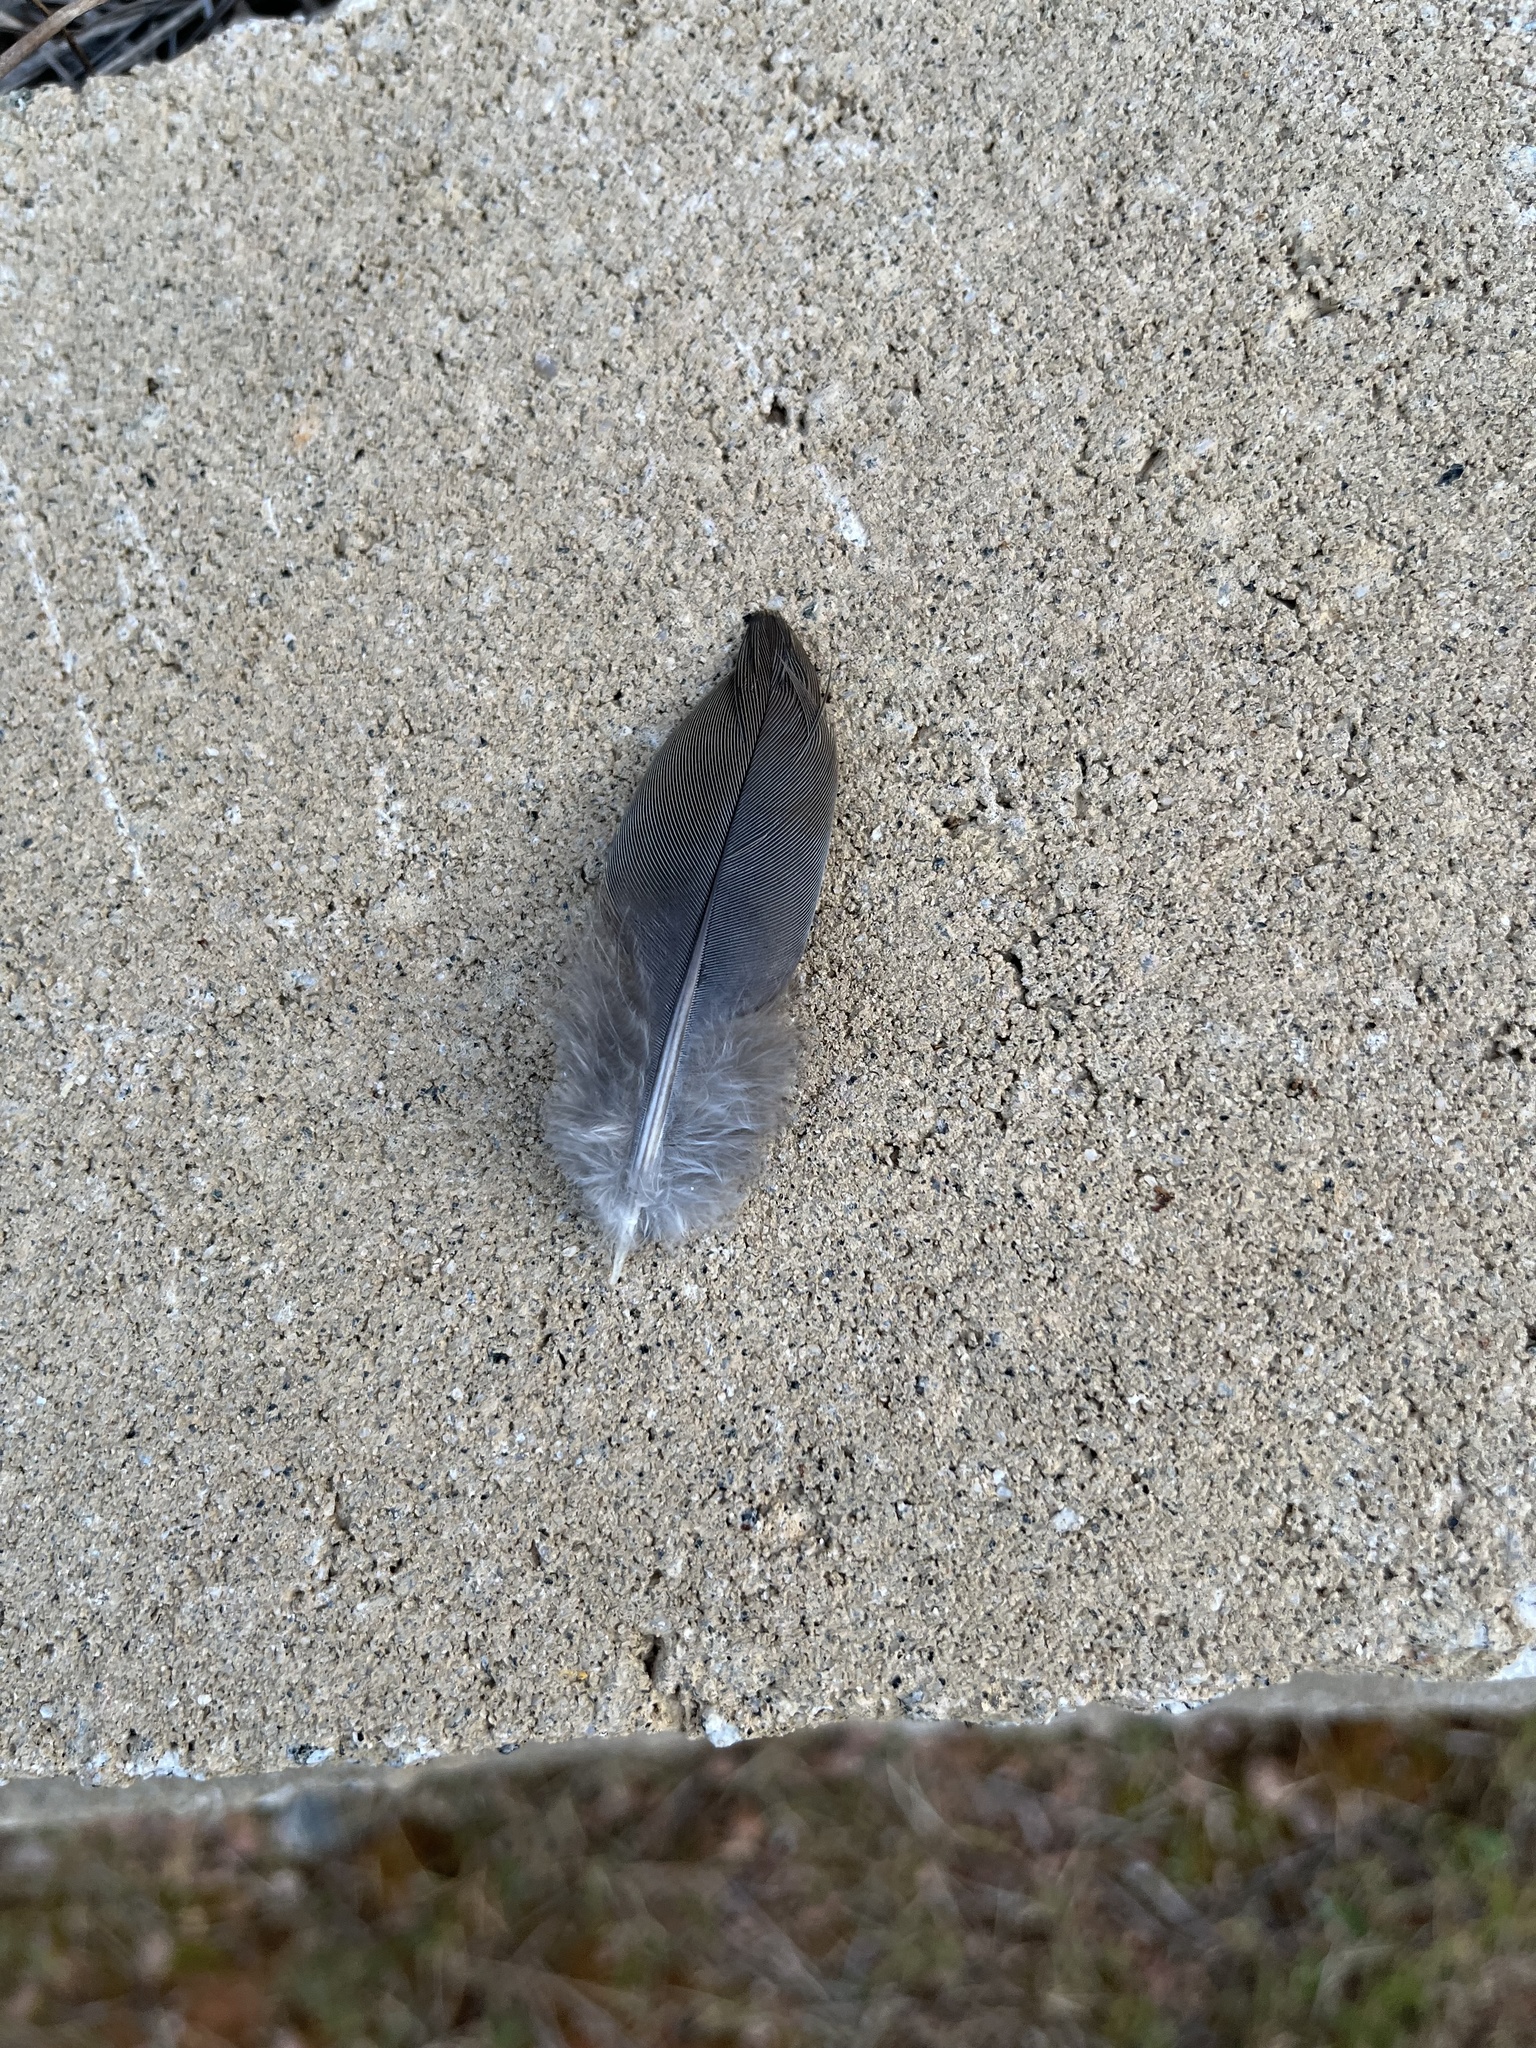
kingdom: Animalia
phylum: Chordata
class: Aves
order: Columbiformes
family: Columbidae
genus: Zenaida
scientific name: Zenaida macroura
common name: Mourning dove
